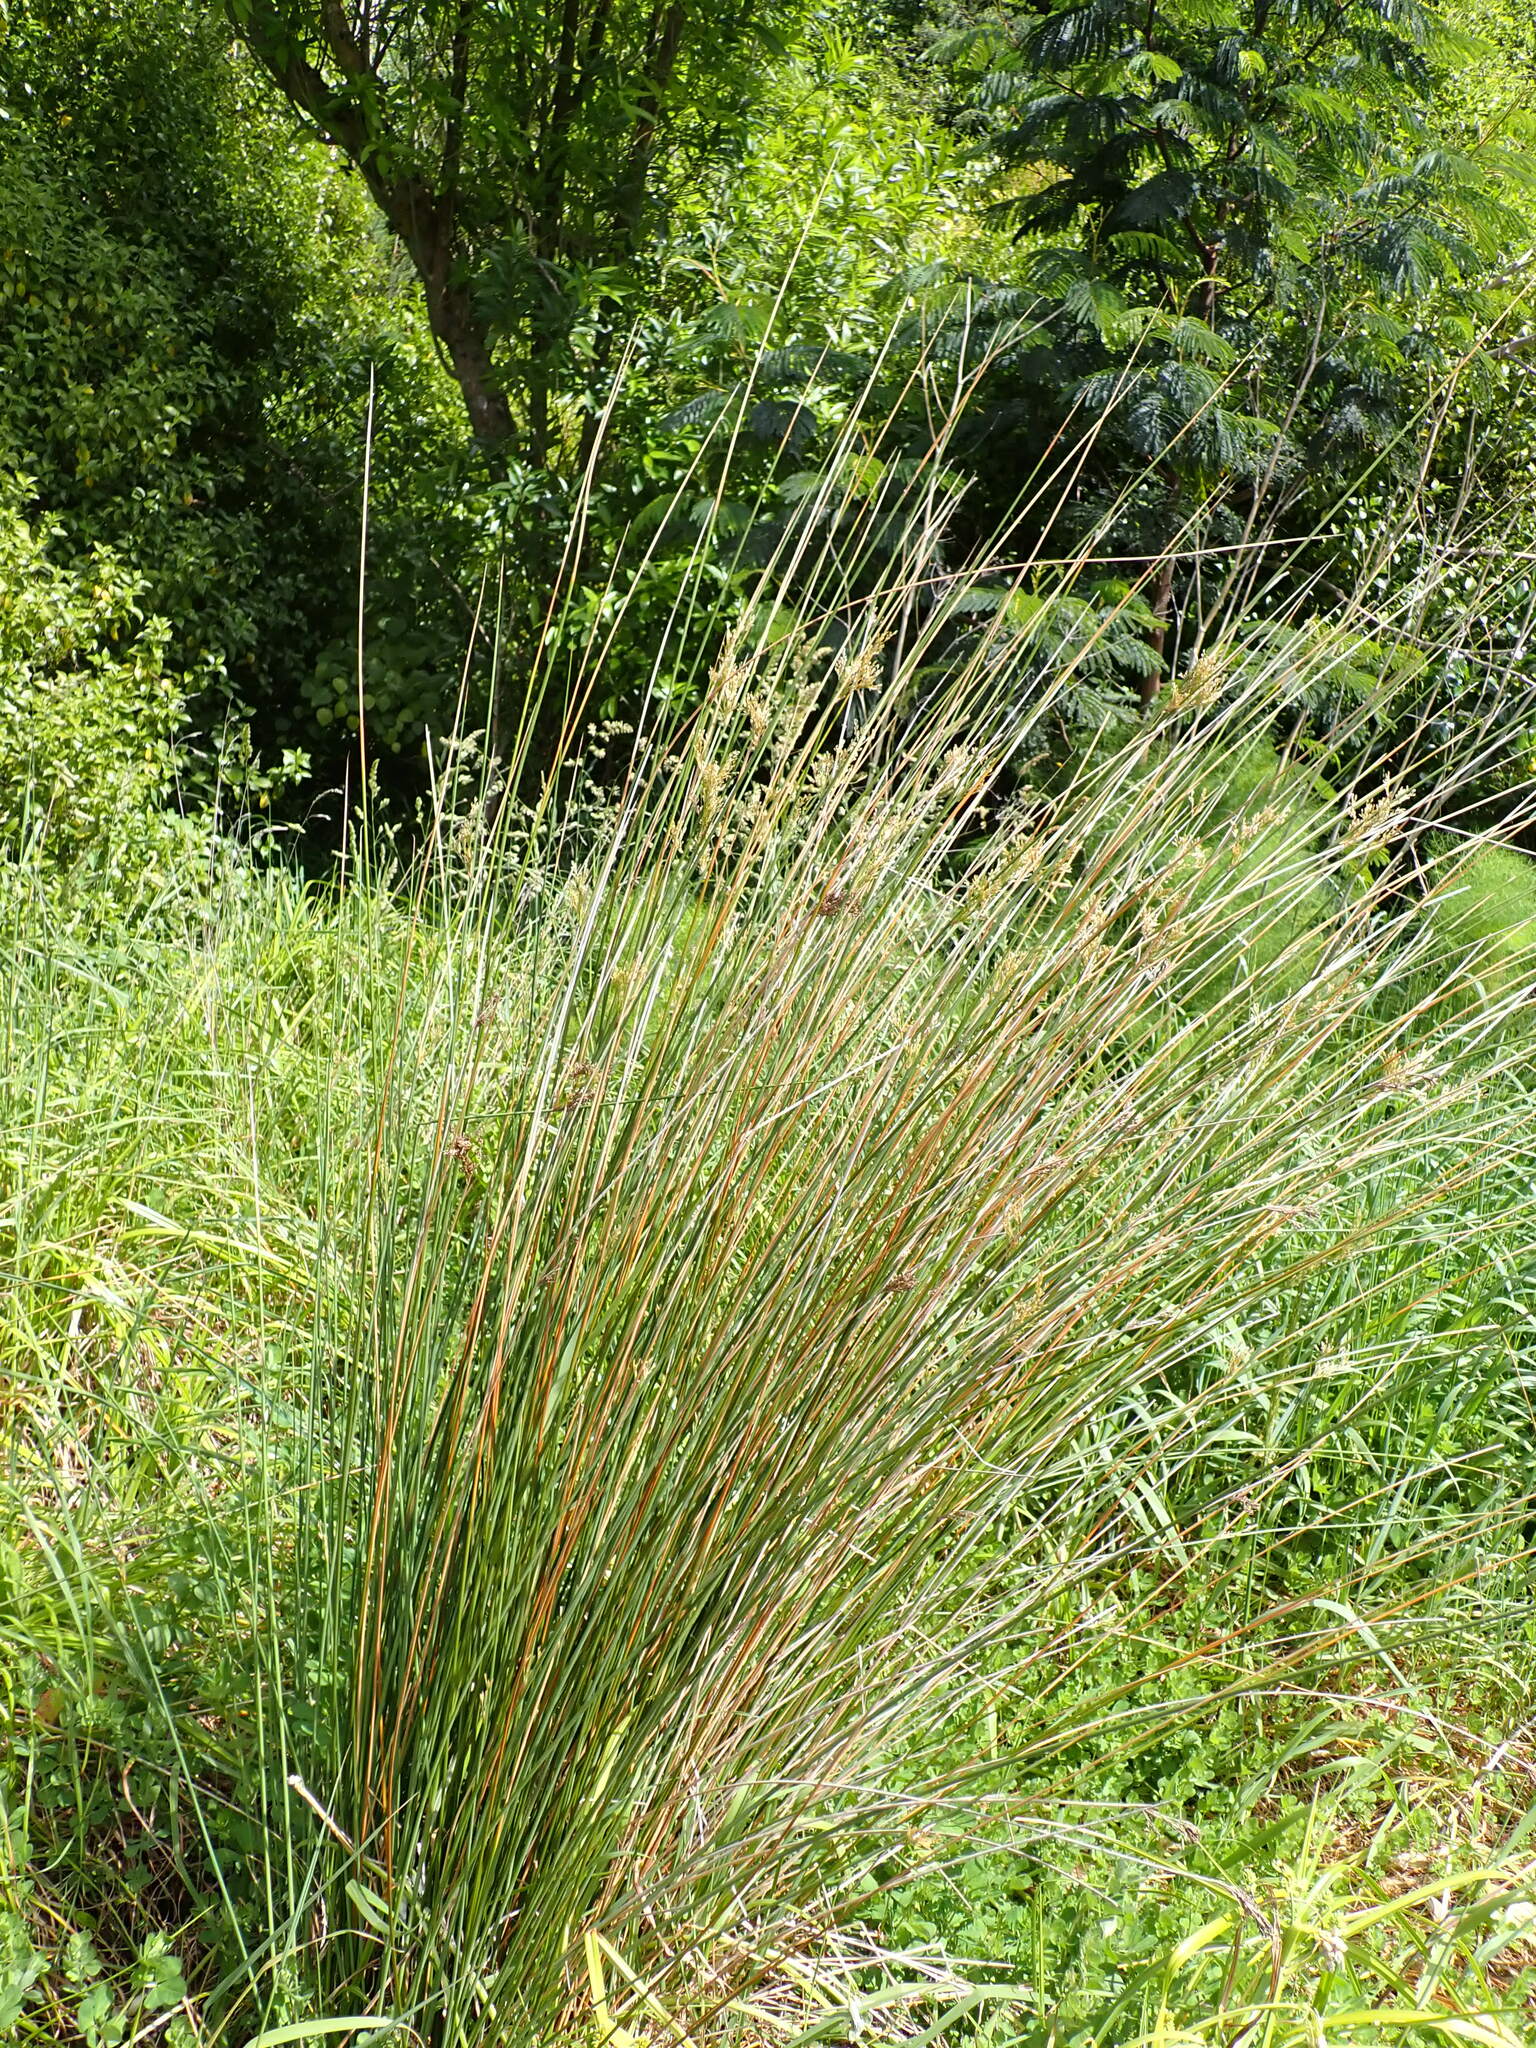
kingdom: Plantae
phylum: Tracheophyta
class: Liliopsida
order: Poales
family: Juncaceae
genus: Juncus
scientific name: Juncus sarophorus
